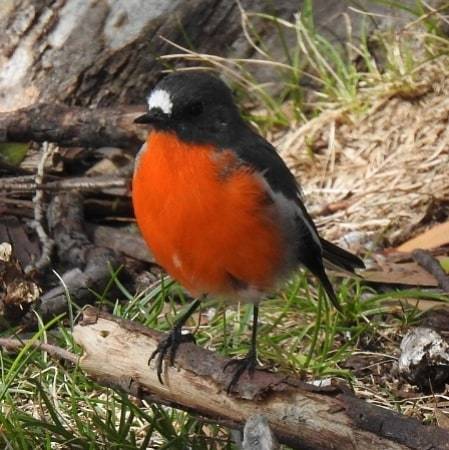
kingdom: Animalia
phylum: Chordata
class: Aves
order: Passeriformes
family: Petroicidae
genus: Petroica
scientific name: Petroica phoenicea
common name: Flame robin
